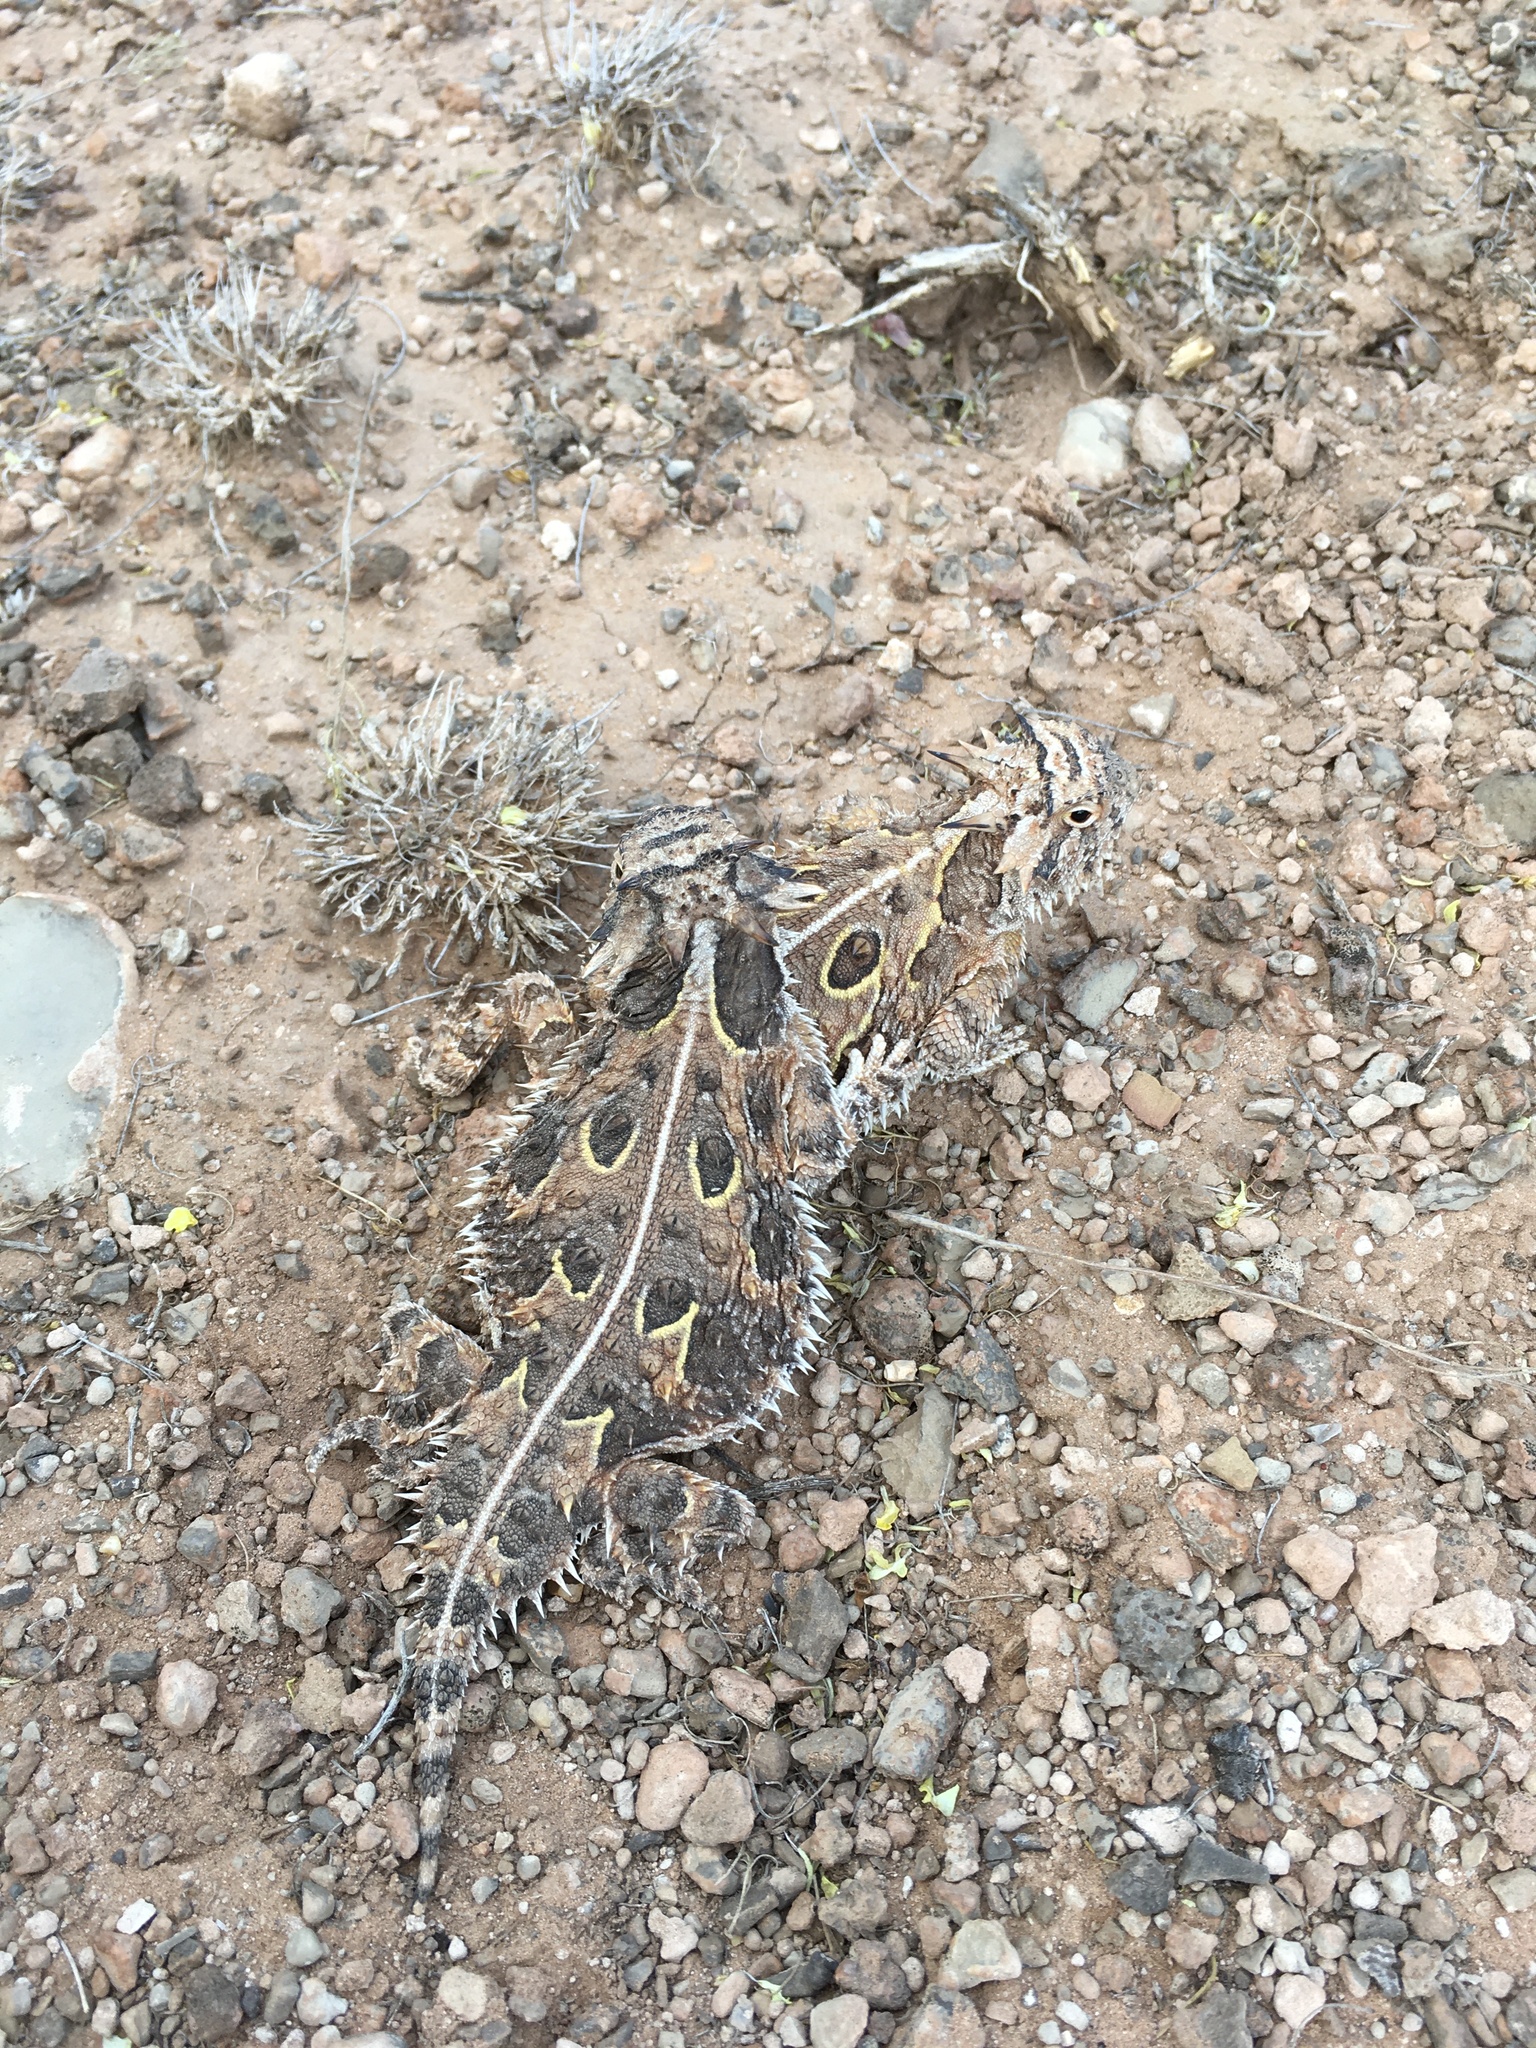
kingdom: Animalia
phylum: Chordata
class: Squamata
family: Phrynosomatidae
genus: Phrynosoma
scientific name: Phrynosoma cornutum
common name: Texas horned lizard
